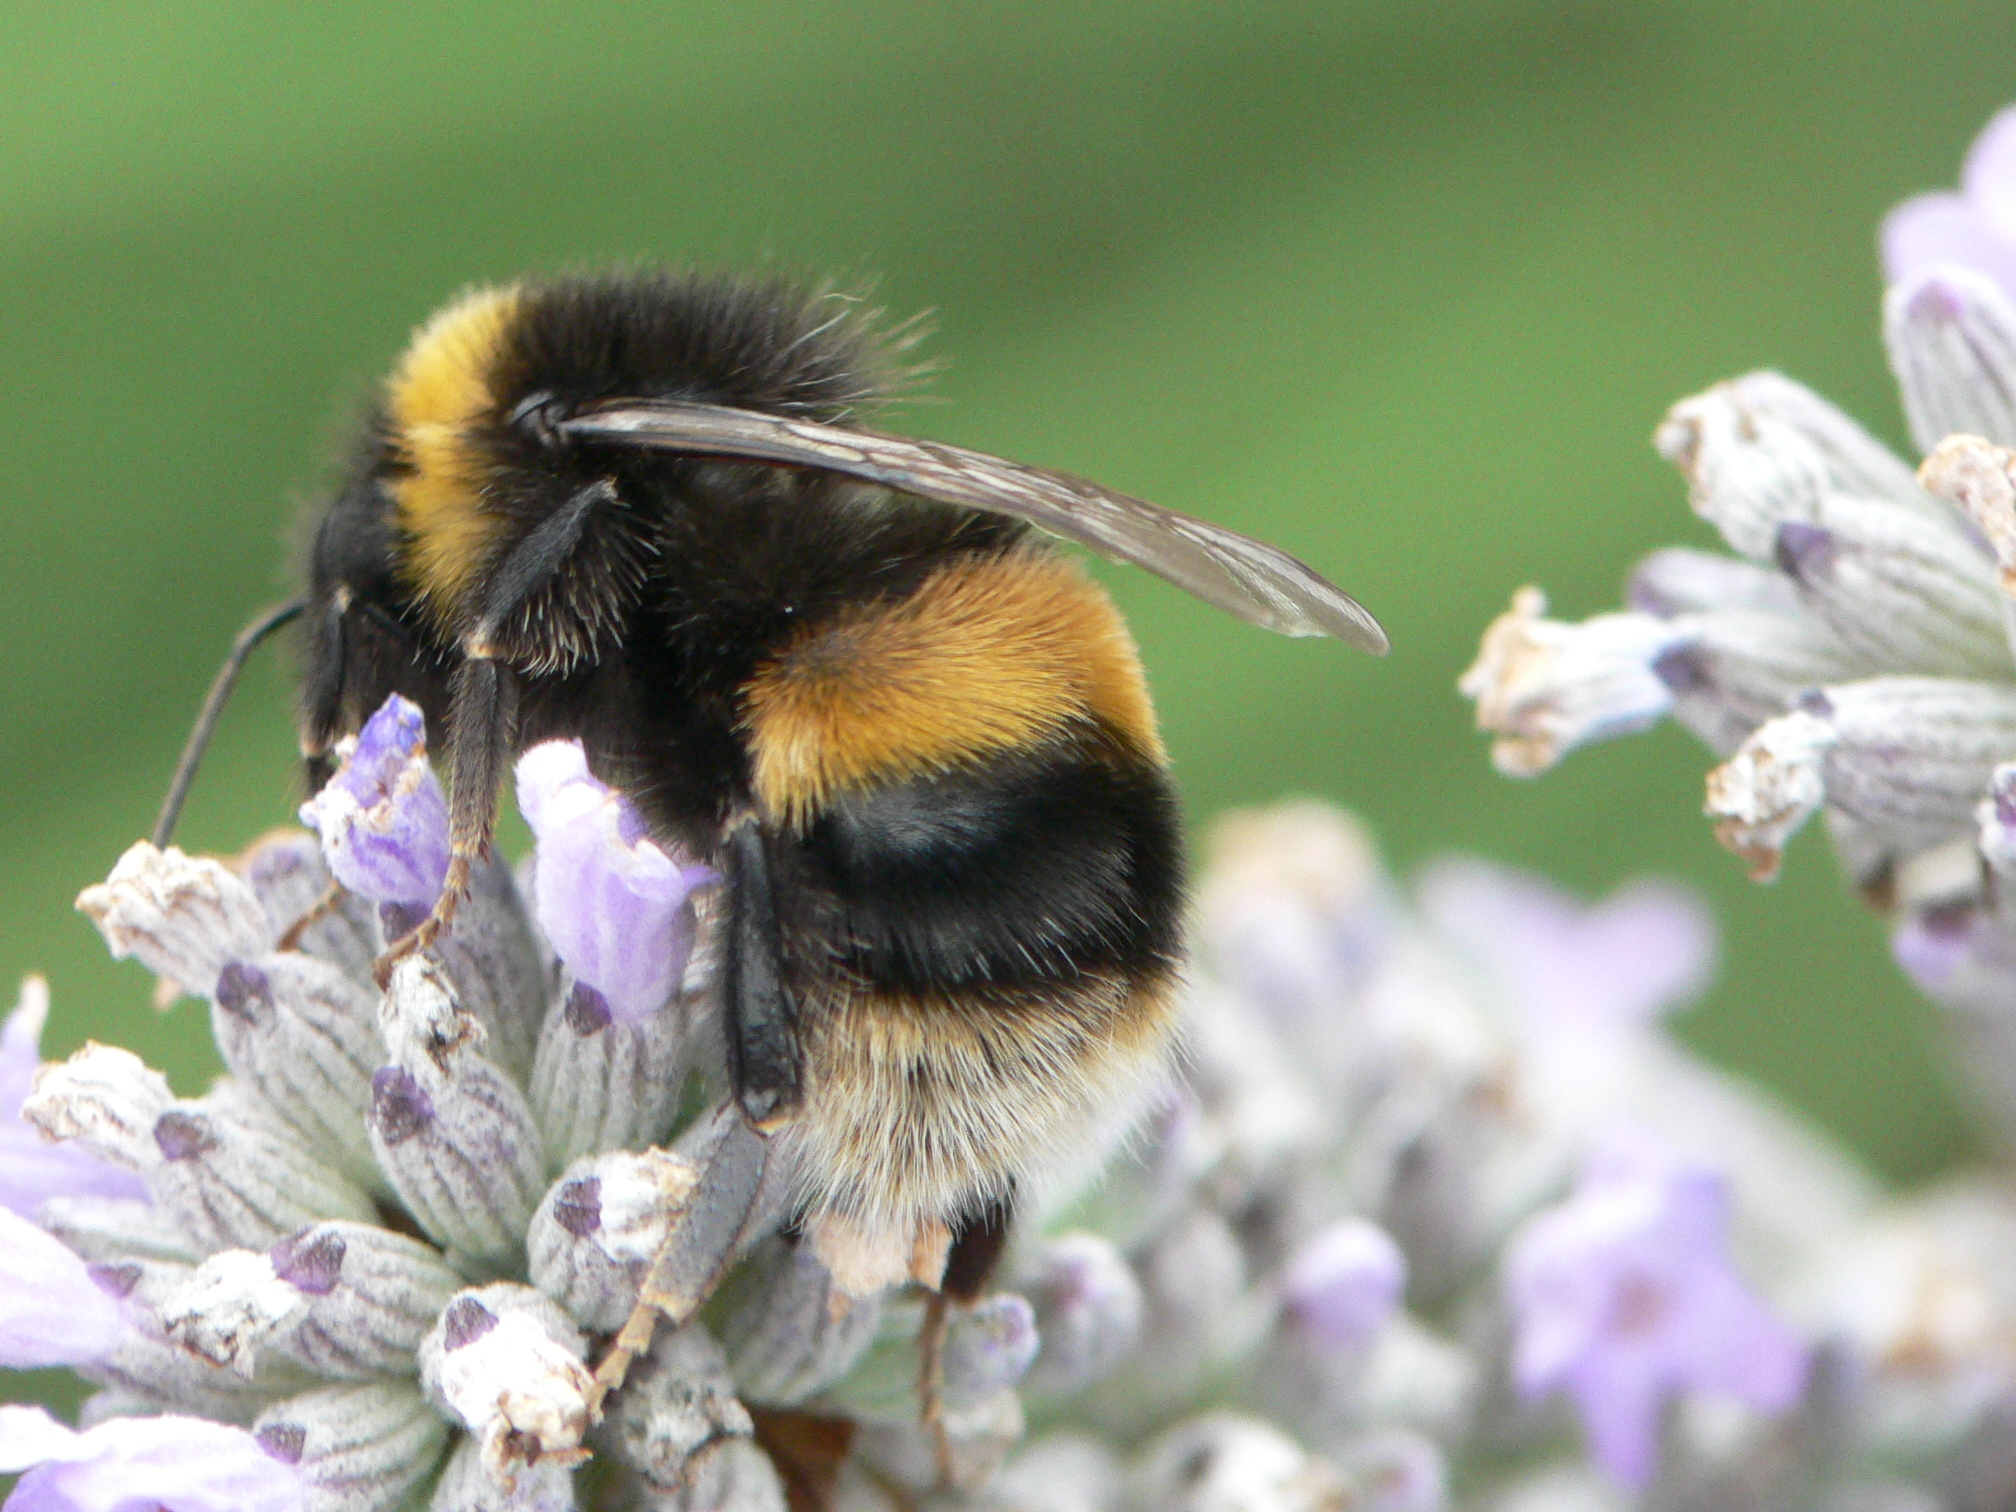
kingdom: Animalia
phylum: Arthropoda
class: Insecta
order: Hymenoptera
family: Apidae
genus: Bombus
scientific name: Bombus terrestris
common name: Buff-tailed bumblebee
